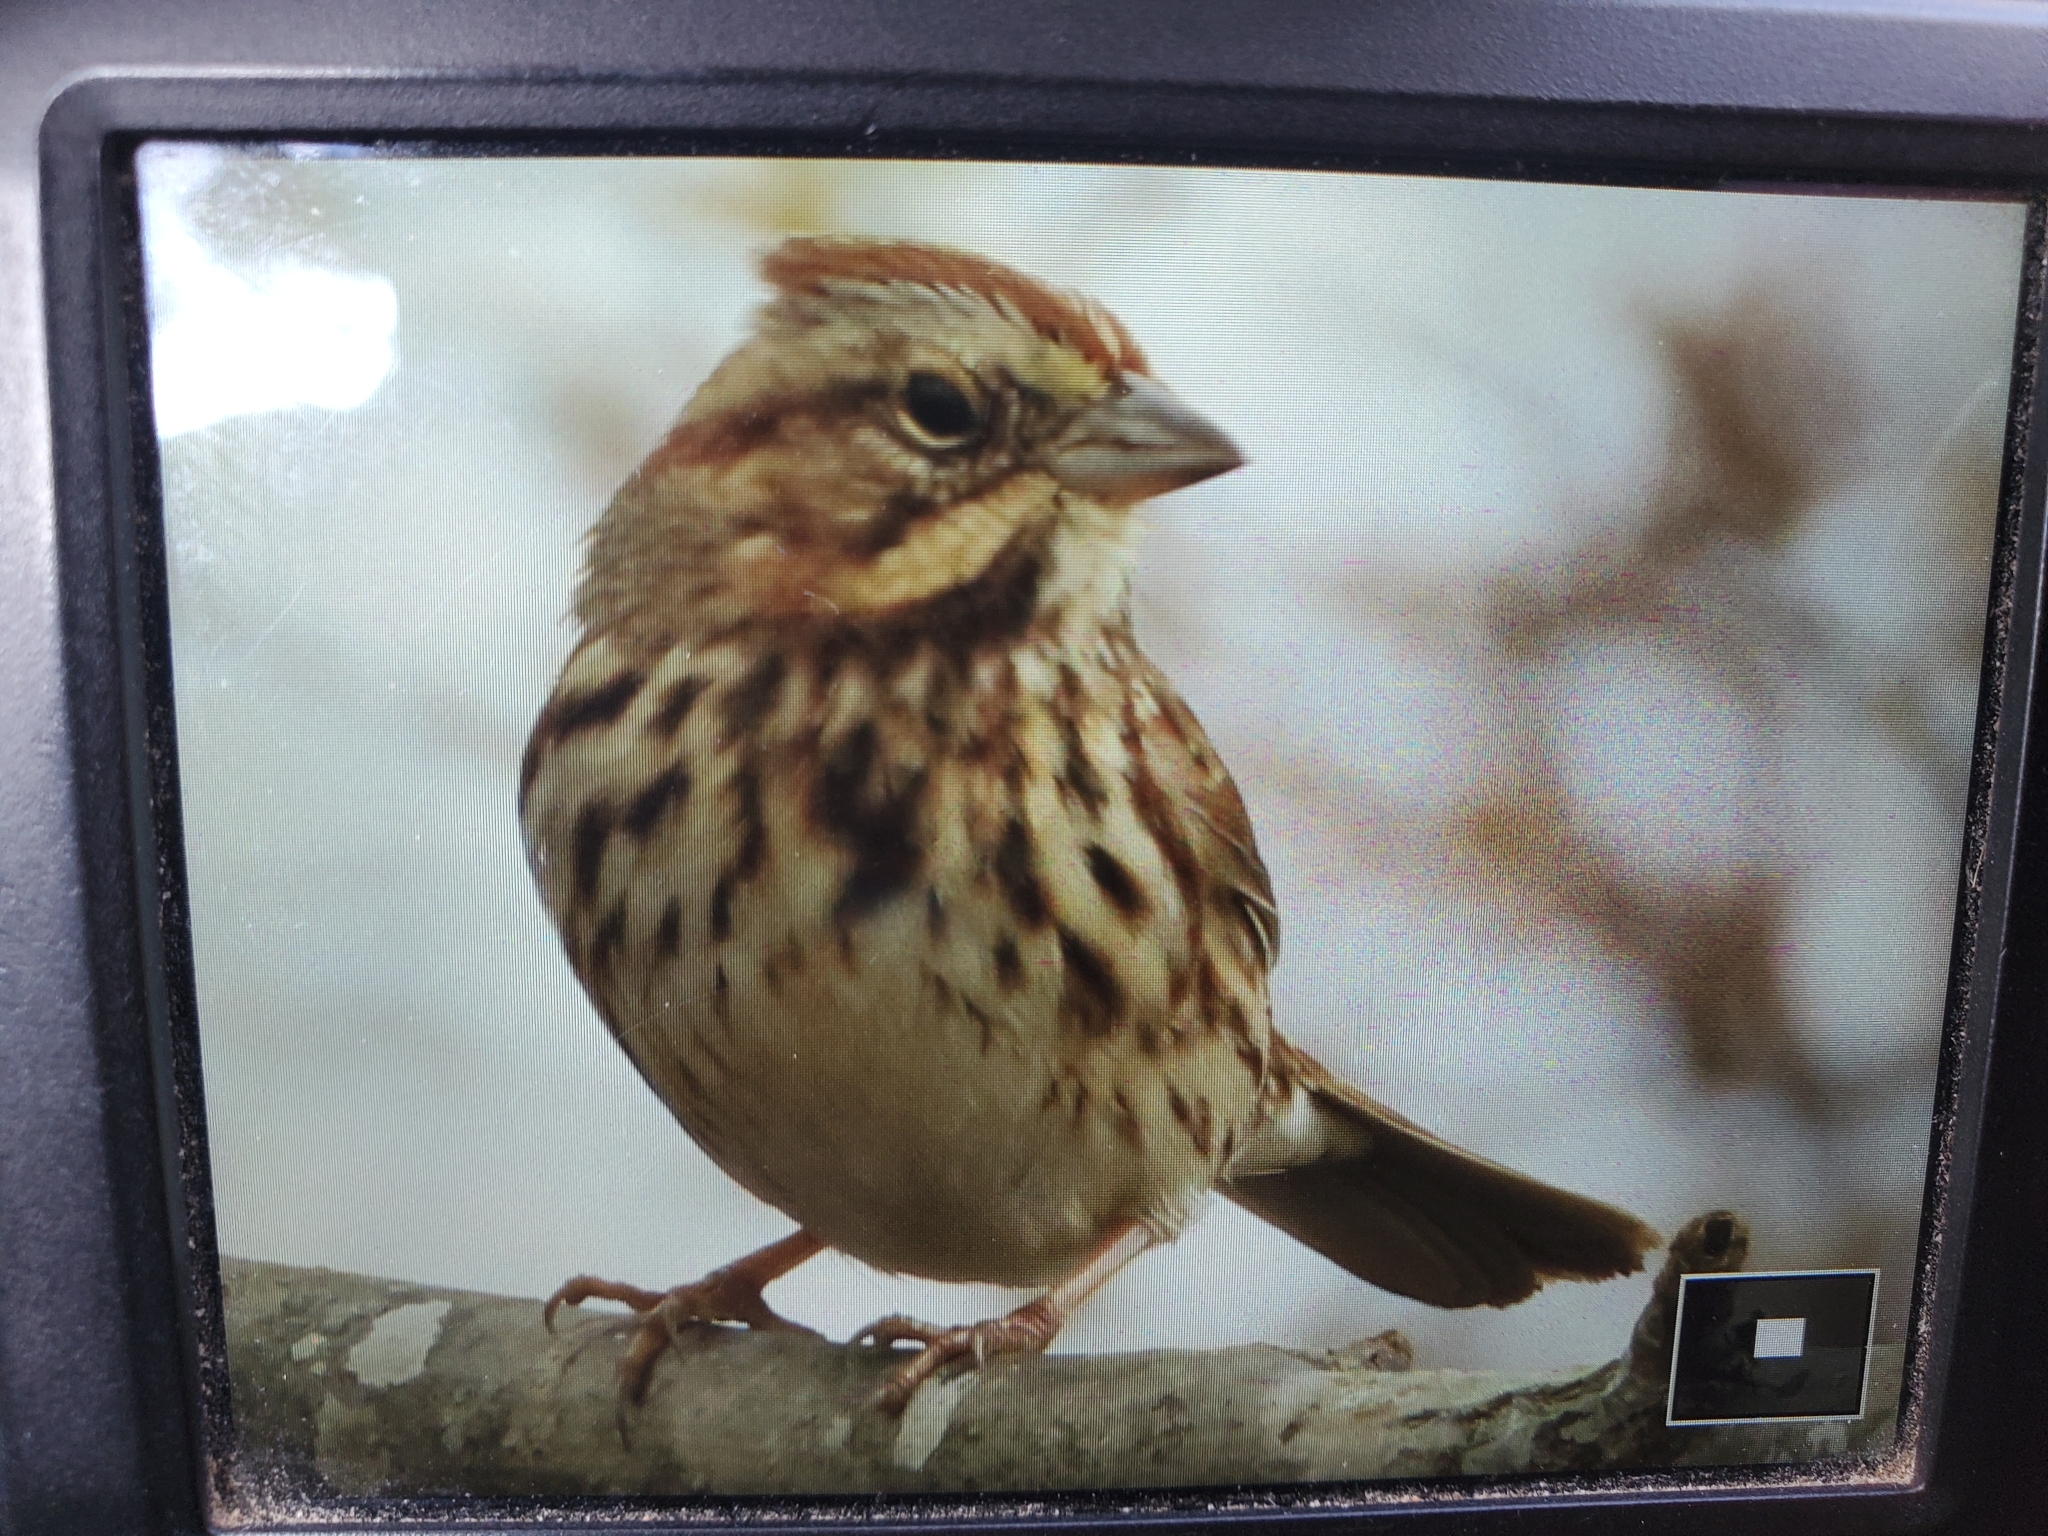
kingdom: Animalia
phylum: Chordata
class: Aves
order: Passeriformes
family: Passerellidae
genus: Melospiza
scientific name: Melospiza melodia
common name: Song sparrow
